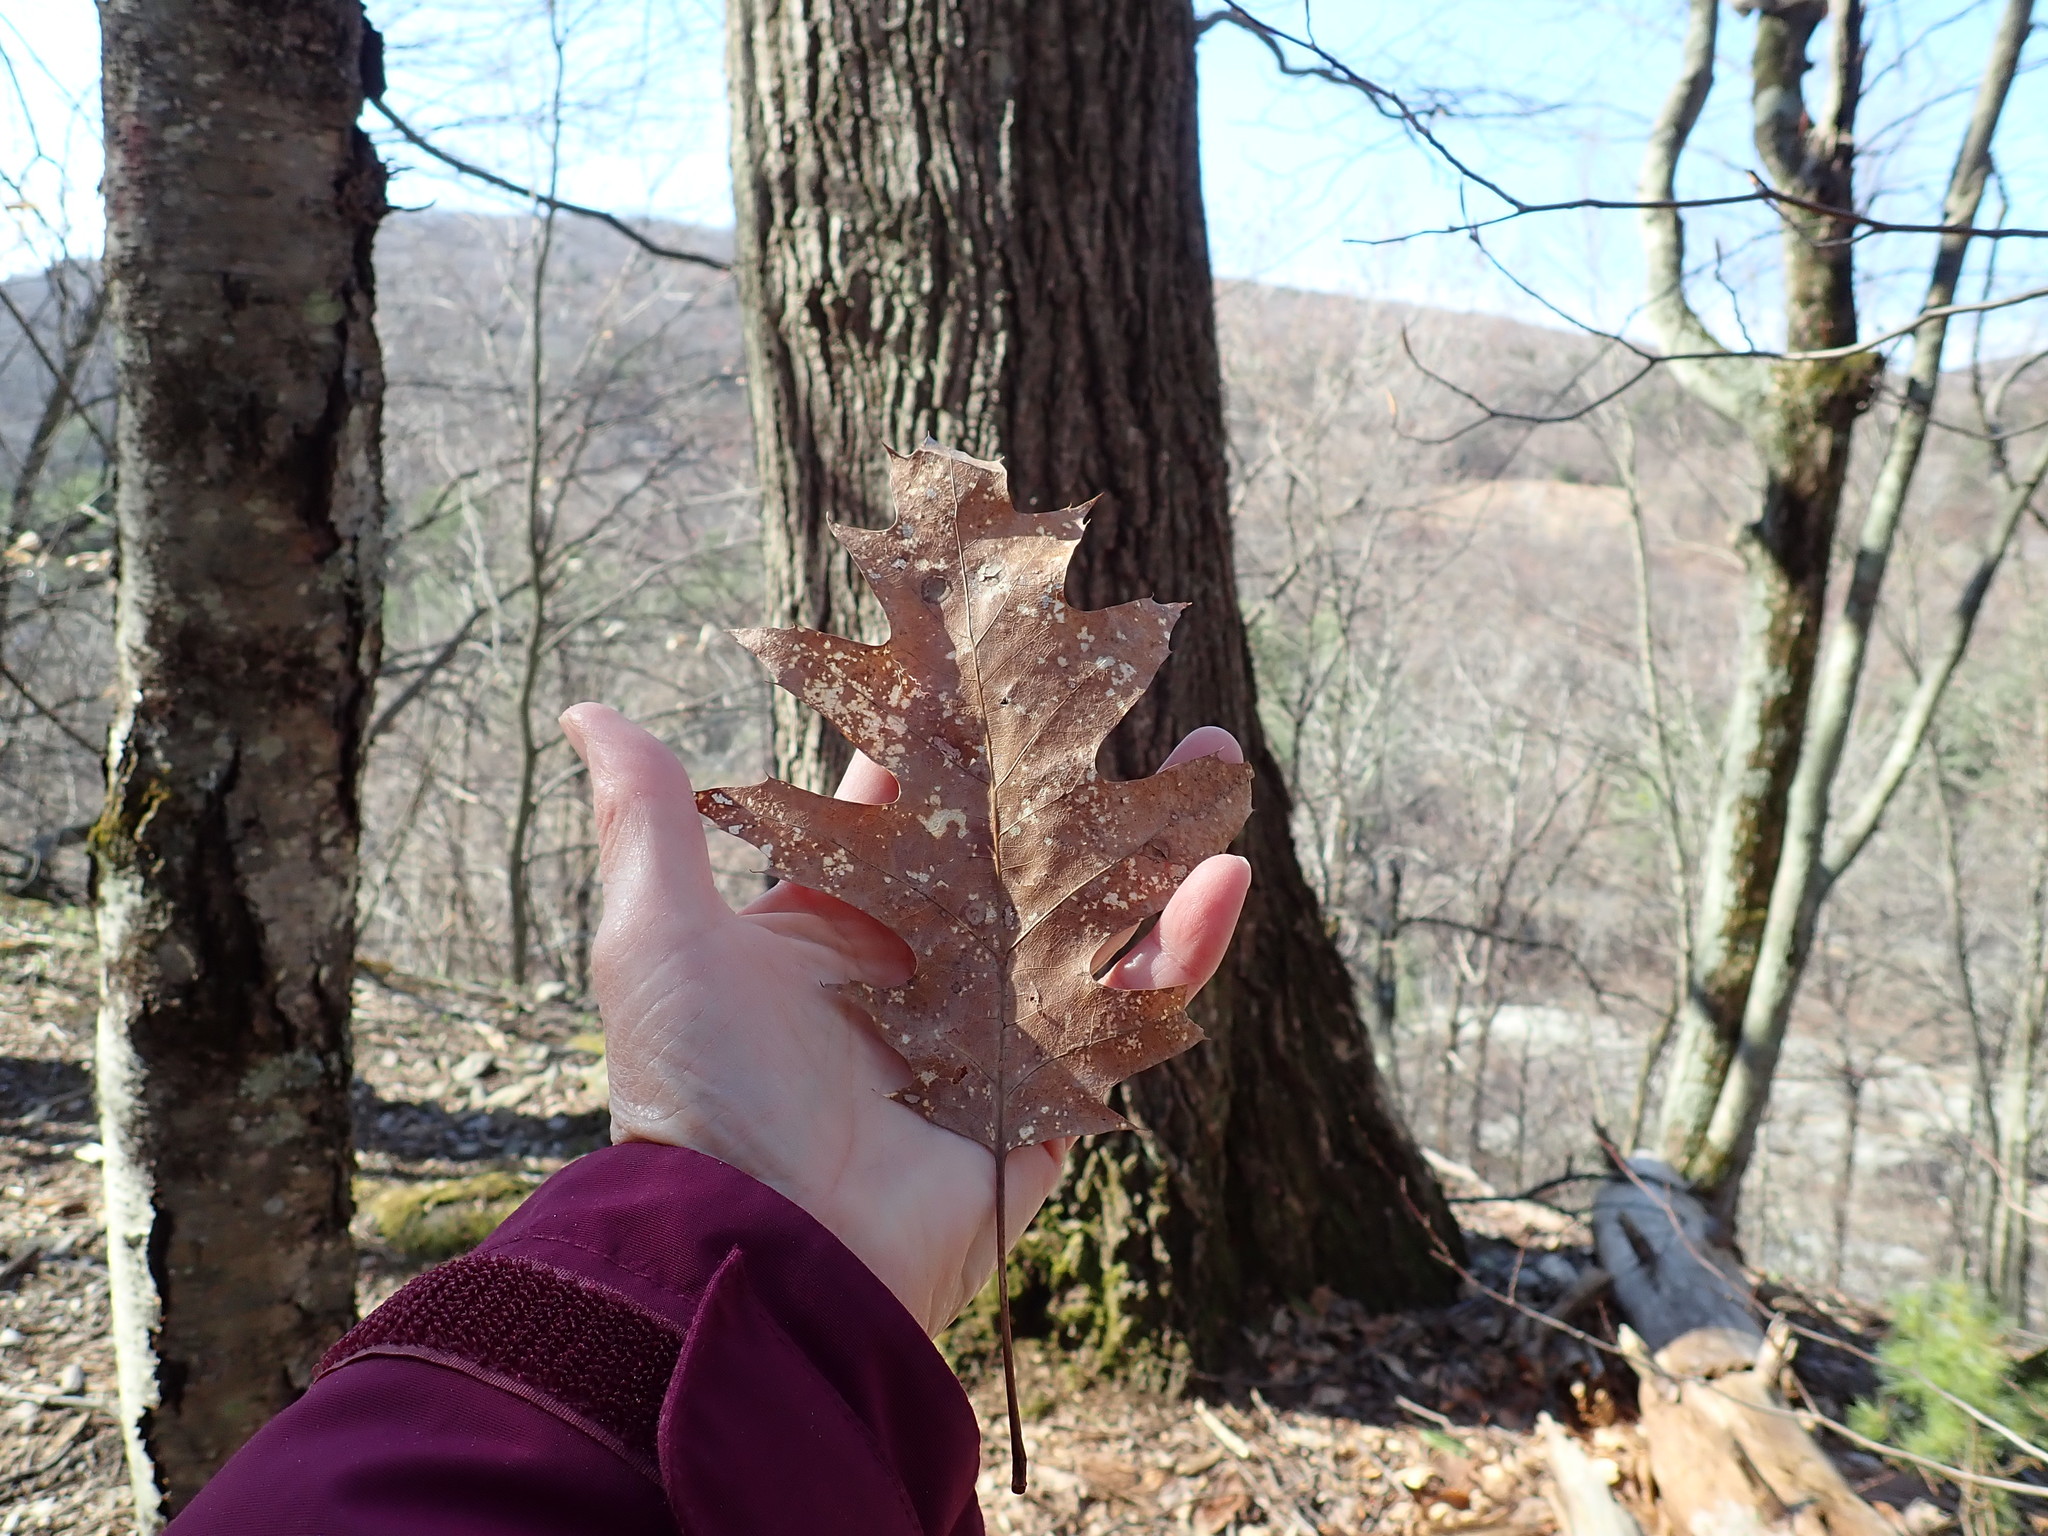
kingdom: Plantae
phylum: Tracheophyta
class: Magnoliopsida
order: Fagales
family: Fagaceae
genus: Quercus
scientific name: Quercus rubra
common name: Red oak
